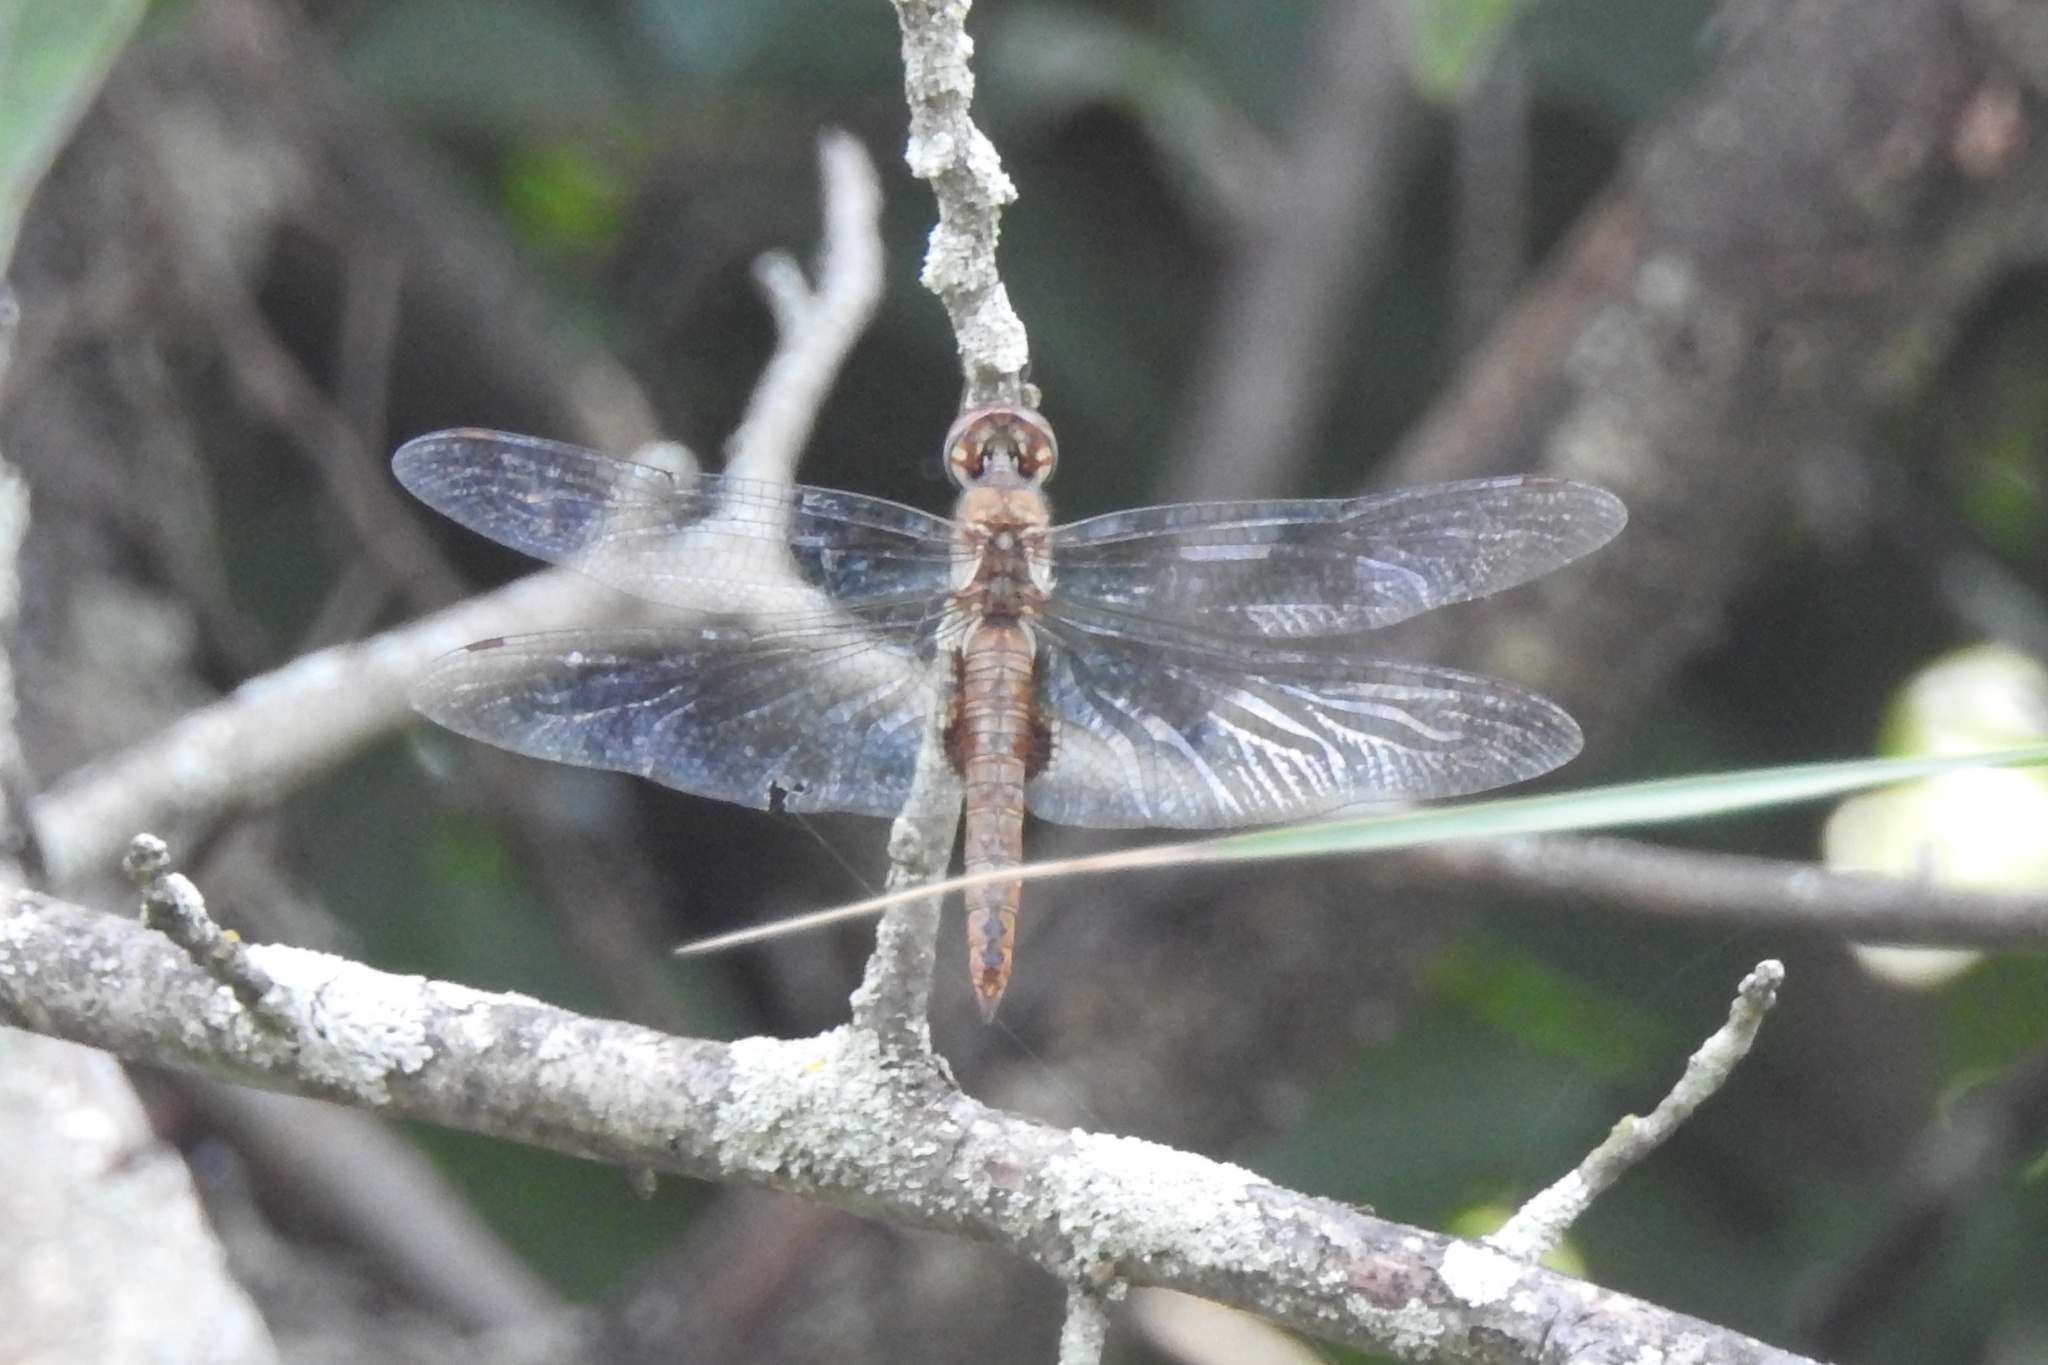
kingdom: Animalia
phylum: Arthropoda
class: Insecta
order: Odonata
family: Libellulidae
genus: Pantala
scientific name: Pantala hymenaea
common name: Spot-winged glider
